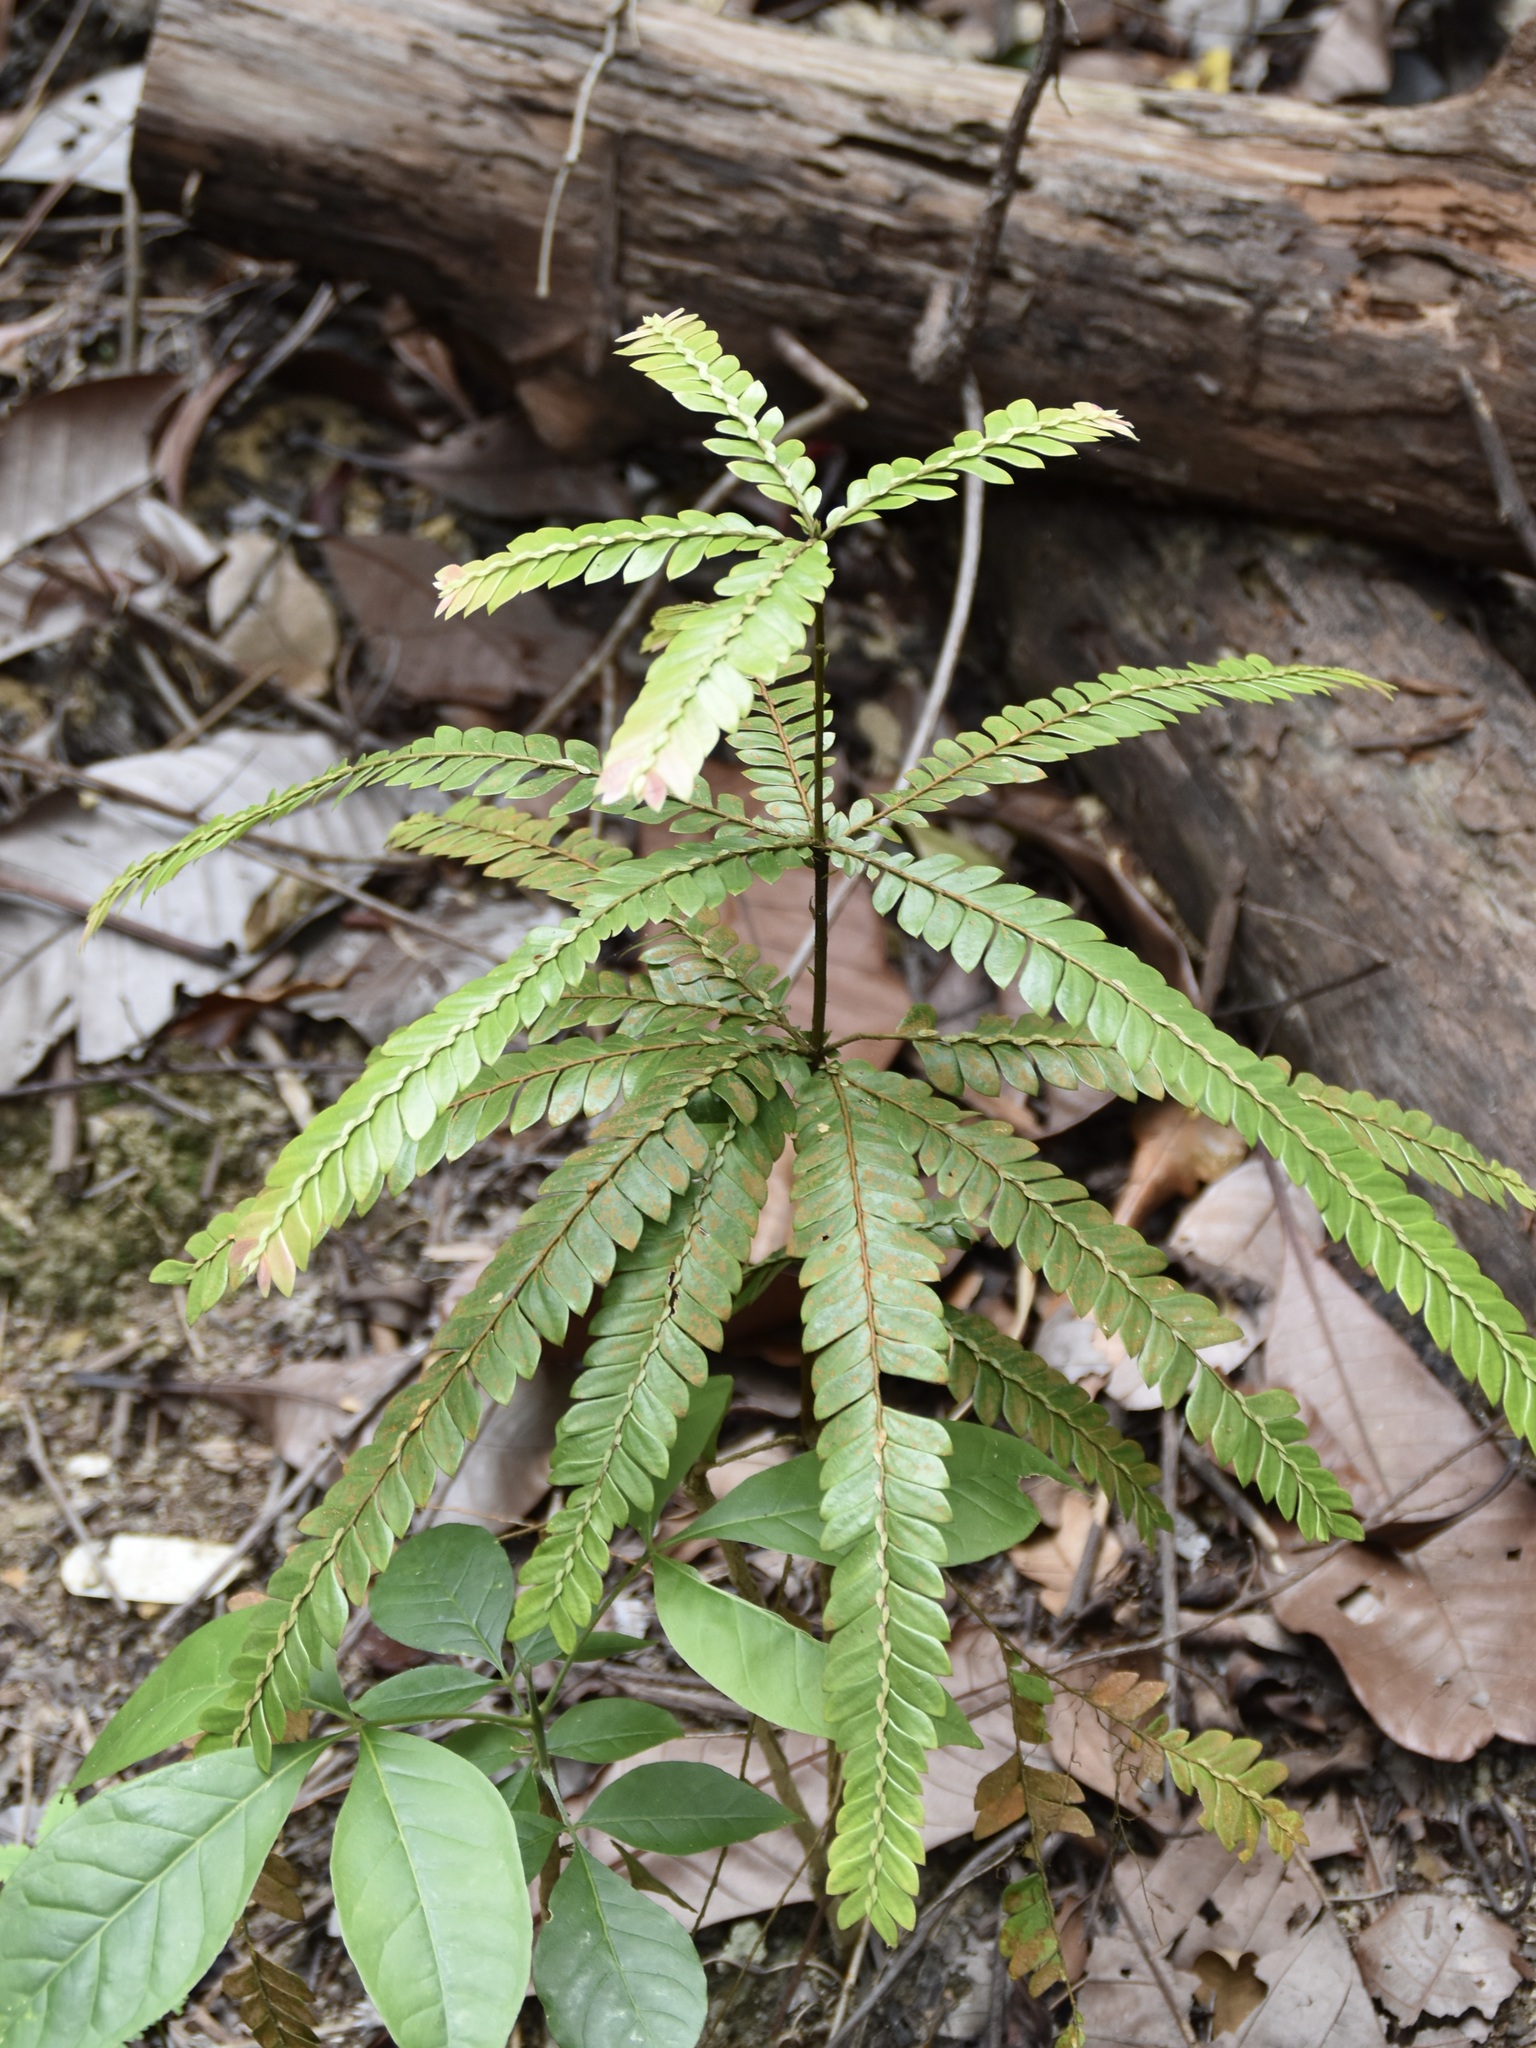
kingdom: Plantae
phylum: Tracheophyta
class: Magnoliopsida
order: Cucurbitales
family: Anisophylleaceae
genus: Anisophyllea
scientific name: Anisophyllea disticha
